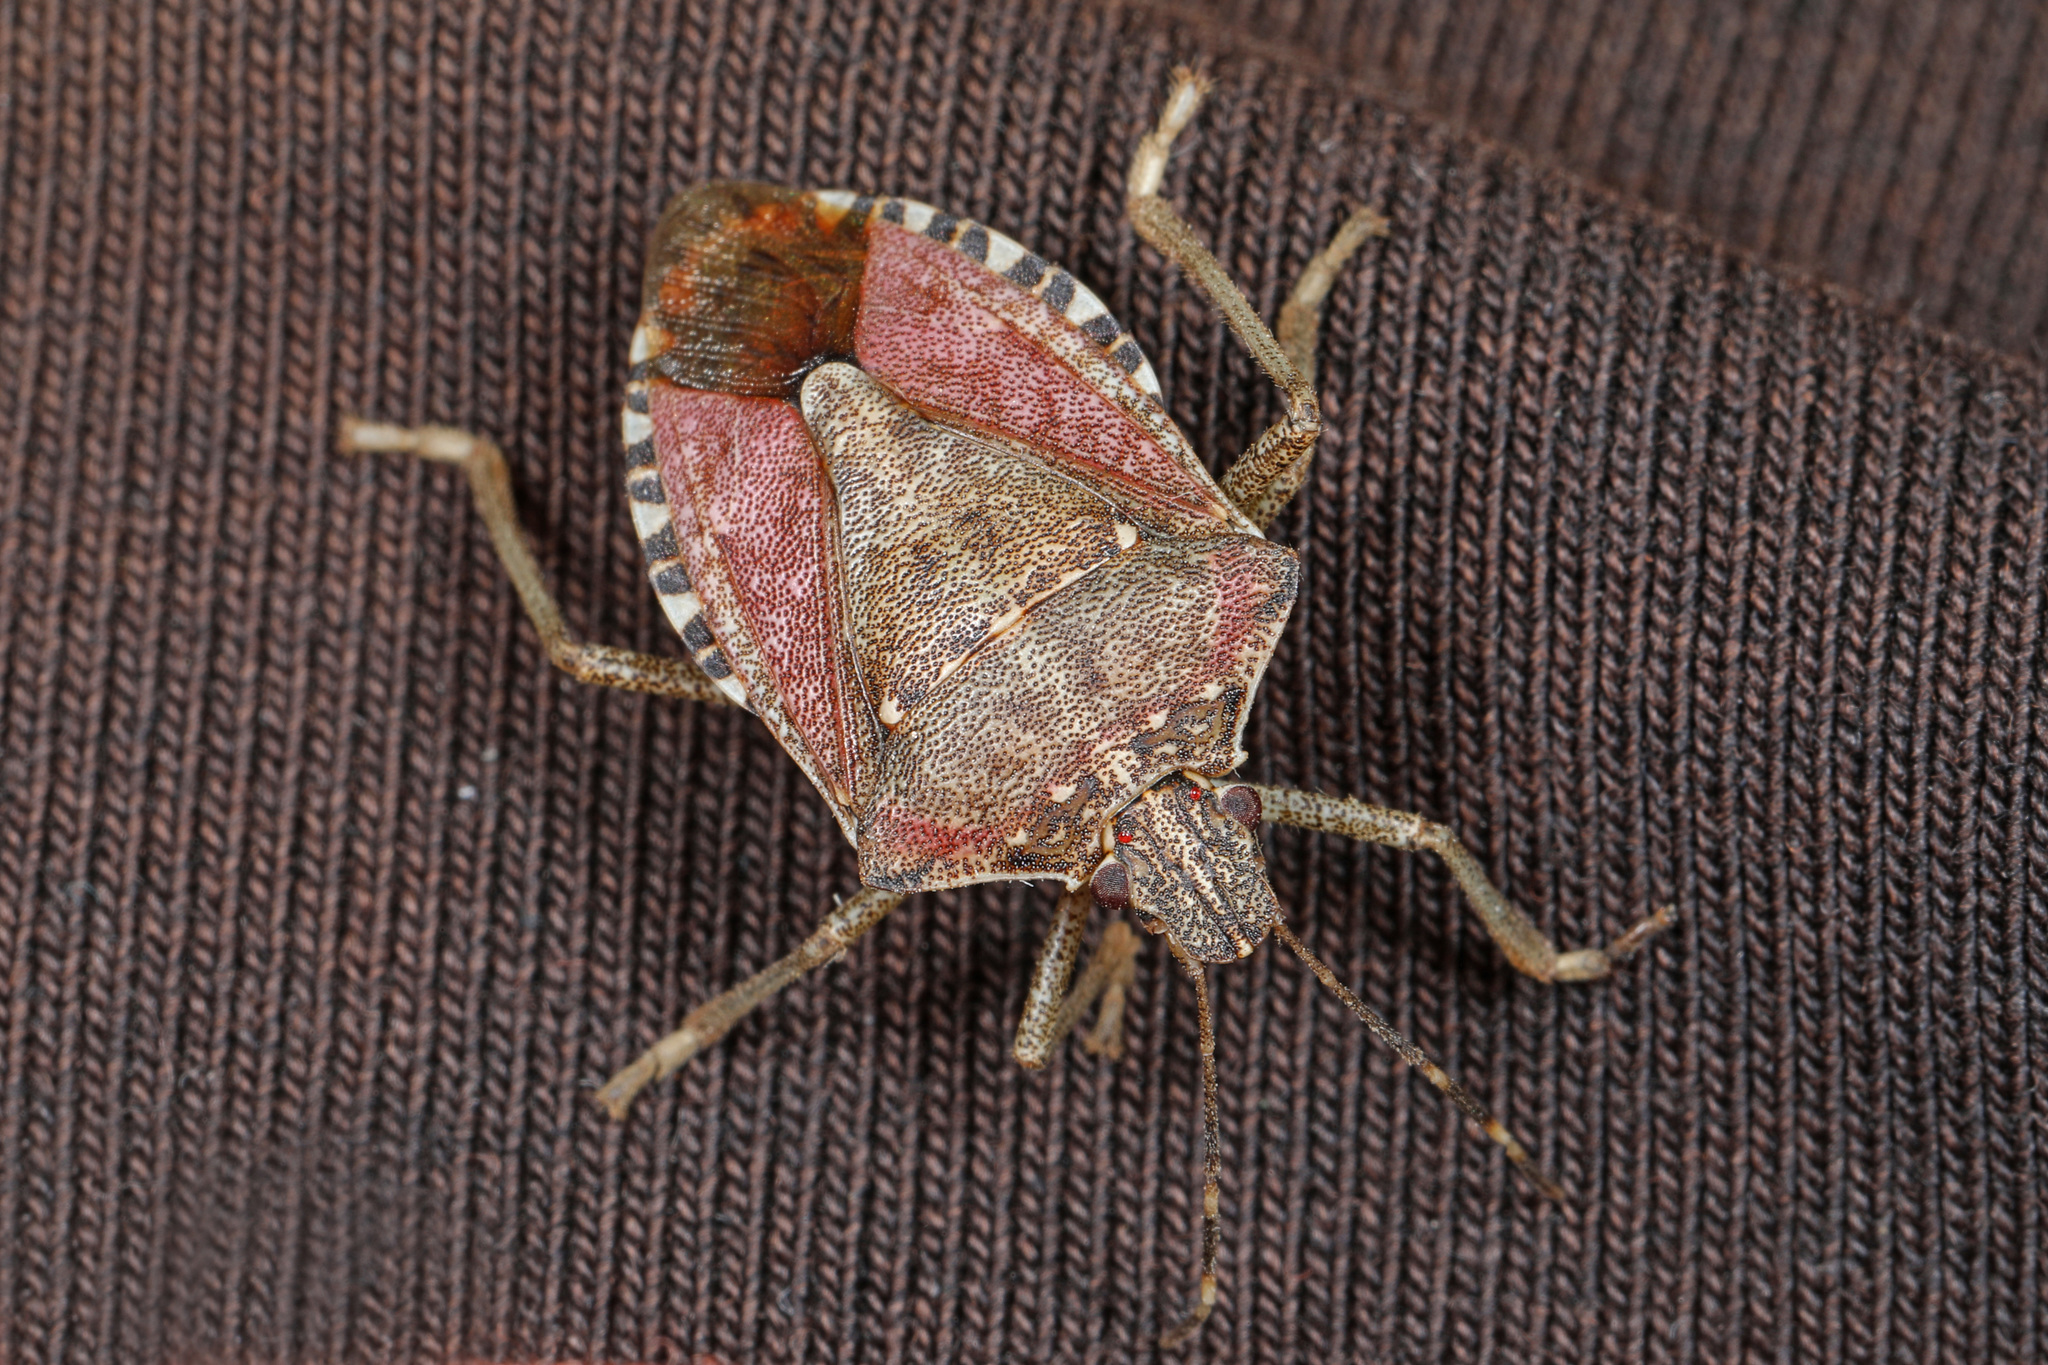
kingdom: Animalia
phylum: Arthropoda
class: Insecta
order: Hemiptera
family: Pentatomidae
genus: Halyomorpha
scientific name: Halyomorpha halys
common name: Brown marmorated stink bug
